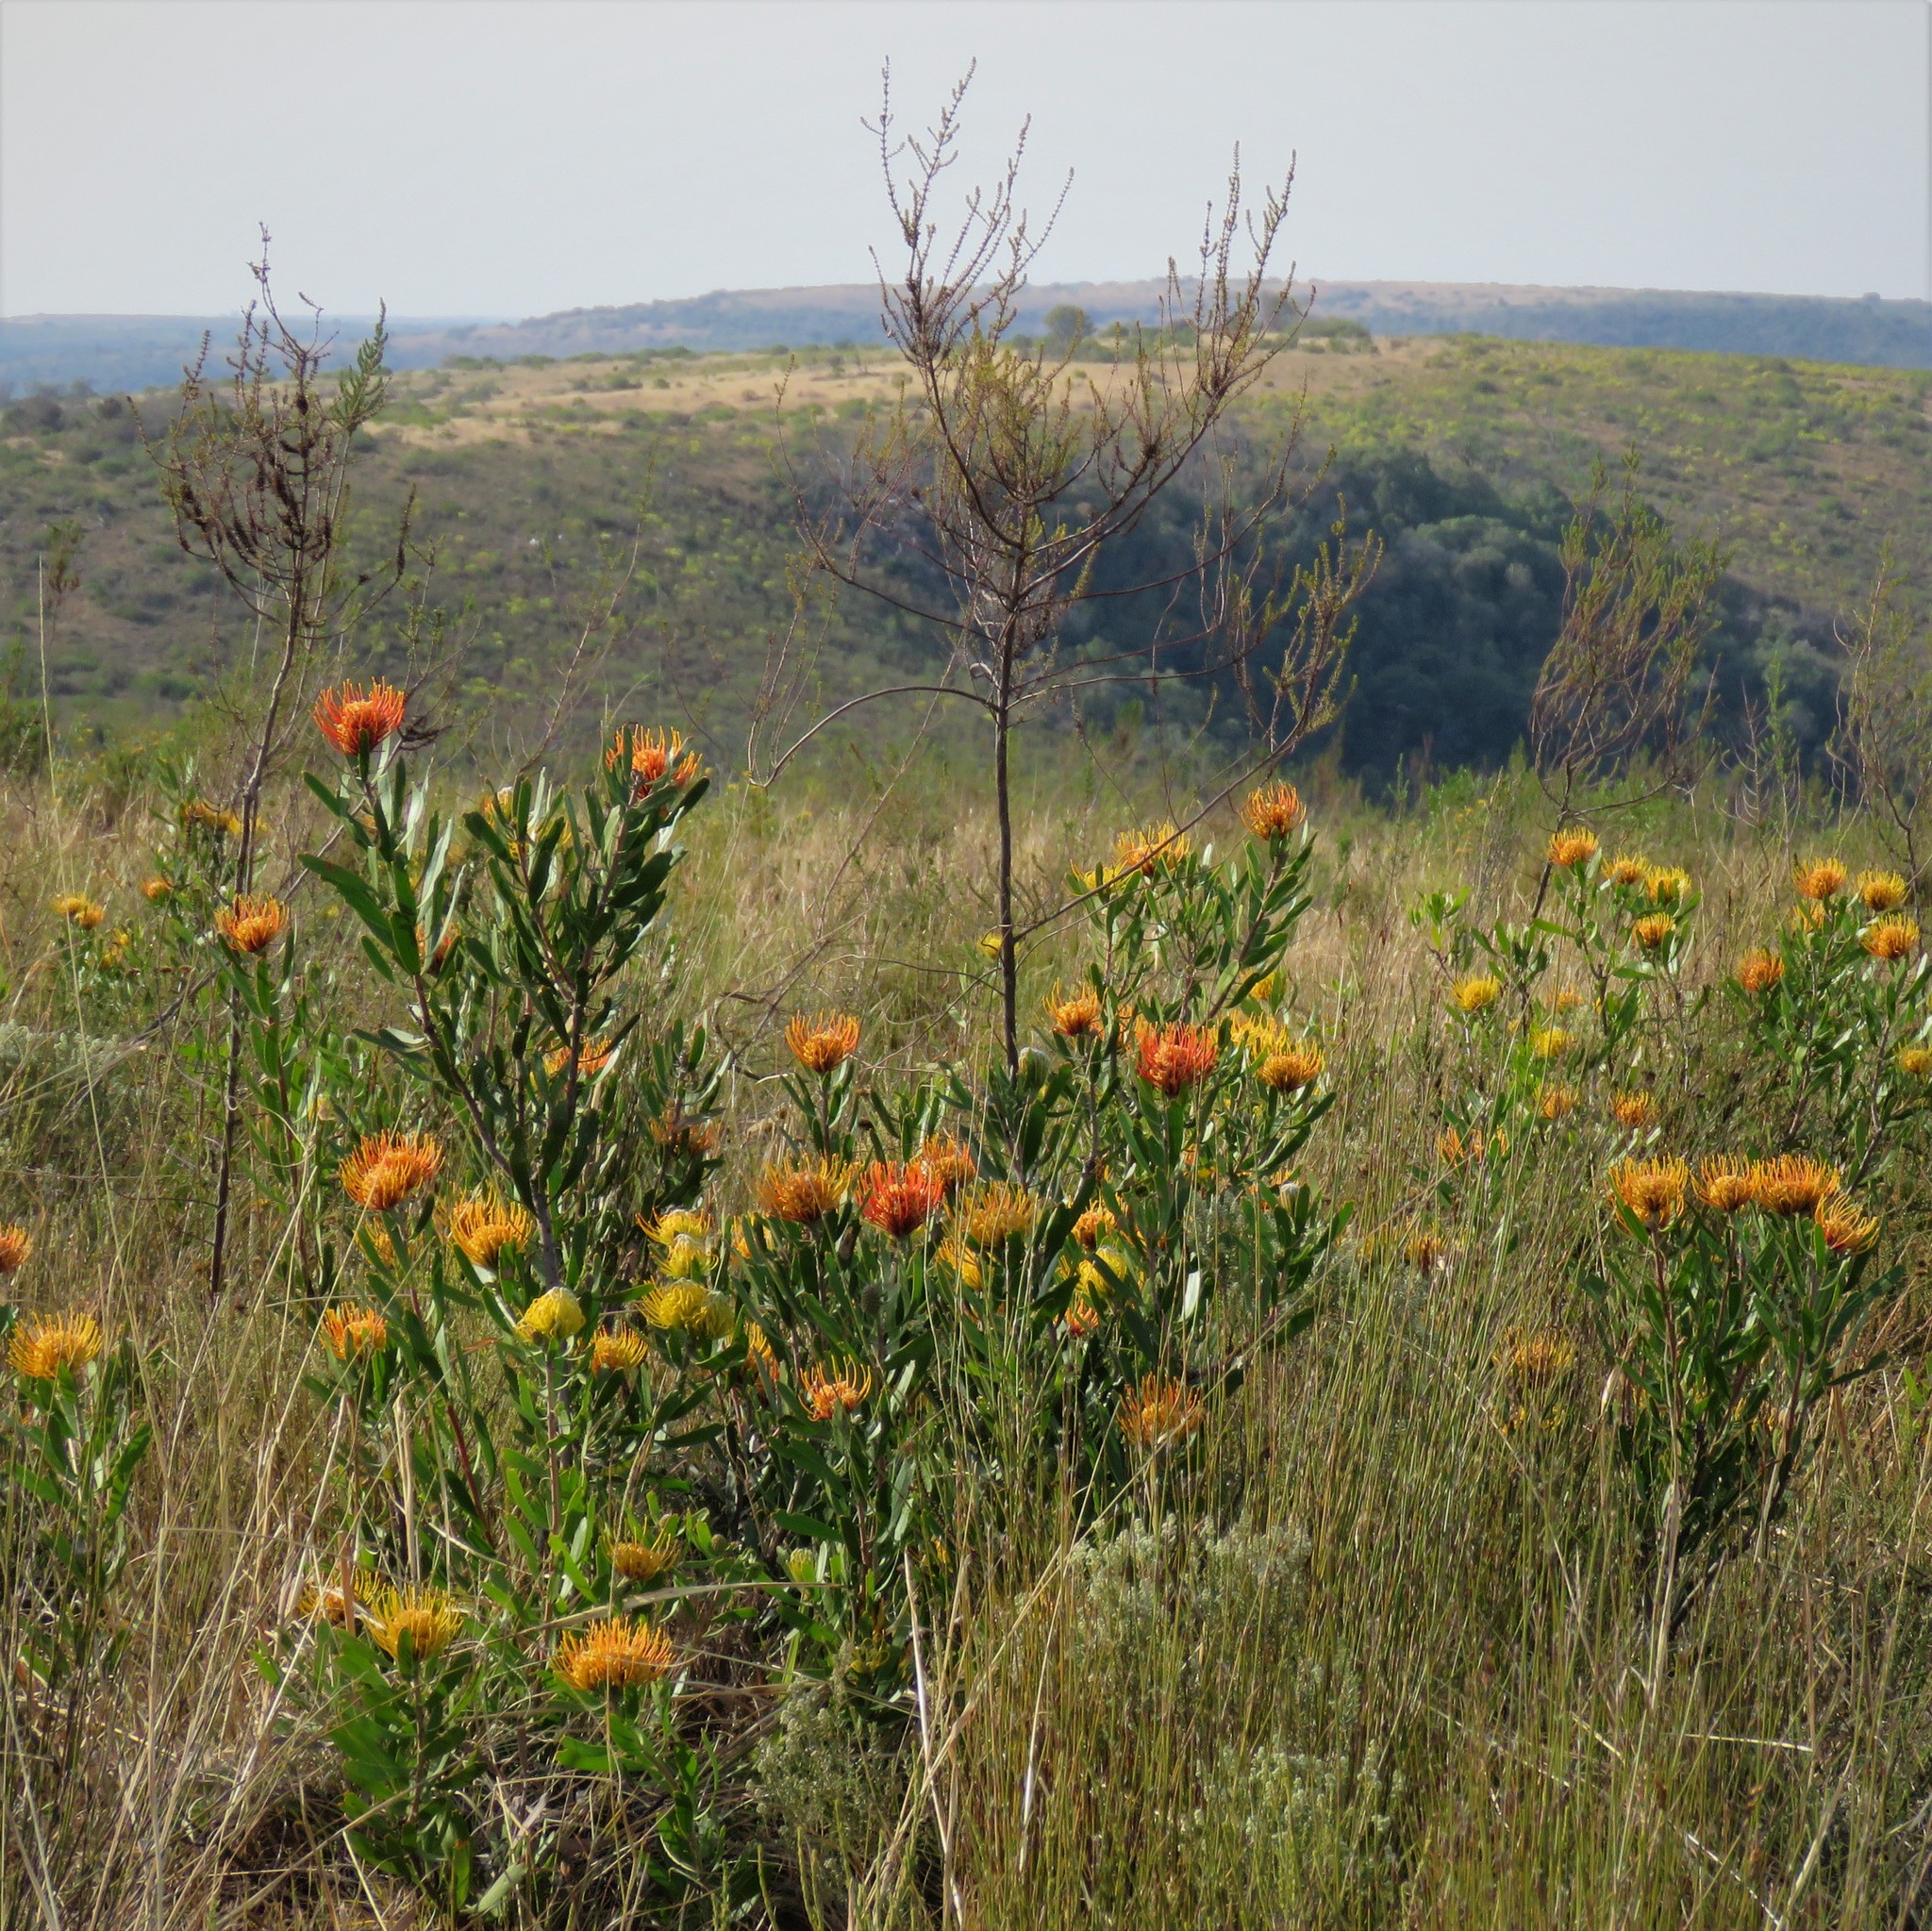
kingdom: Plantae
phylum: Tracheophyta
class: Magnoliopsida
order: Proteales
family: Proteaceae
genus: Leucospermum
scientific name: Leucospermum cuneiforme
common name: Common pincushion
